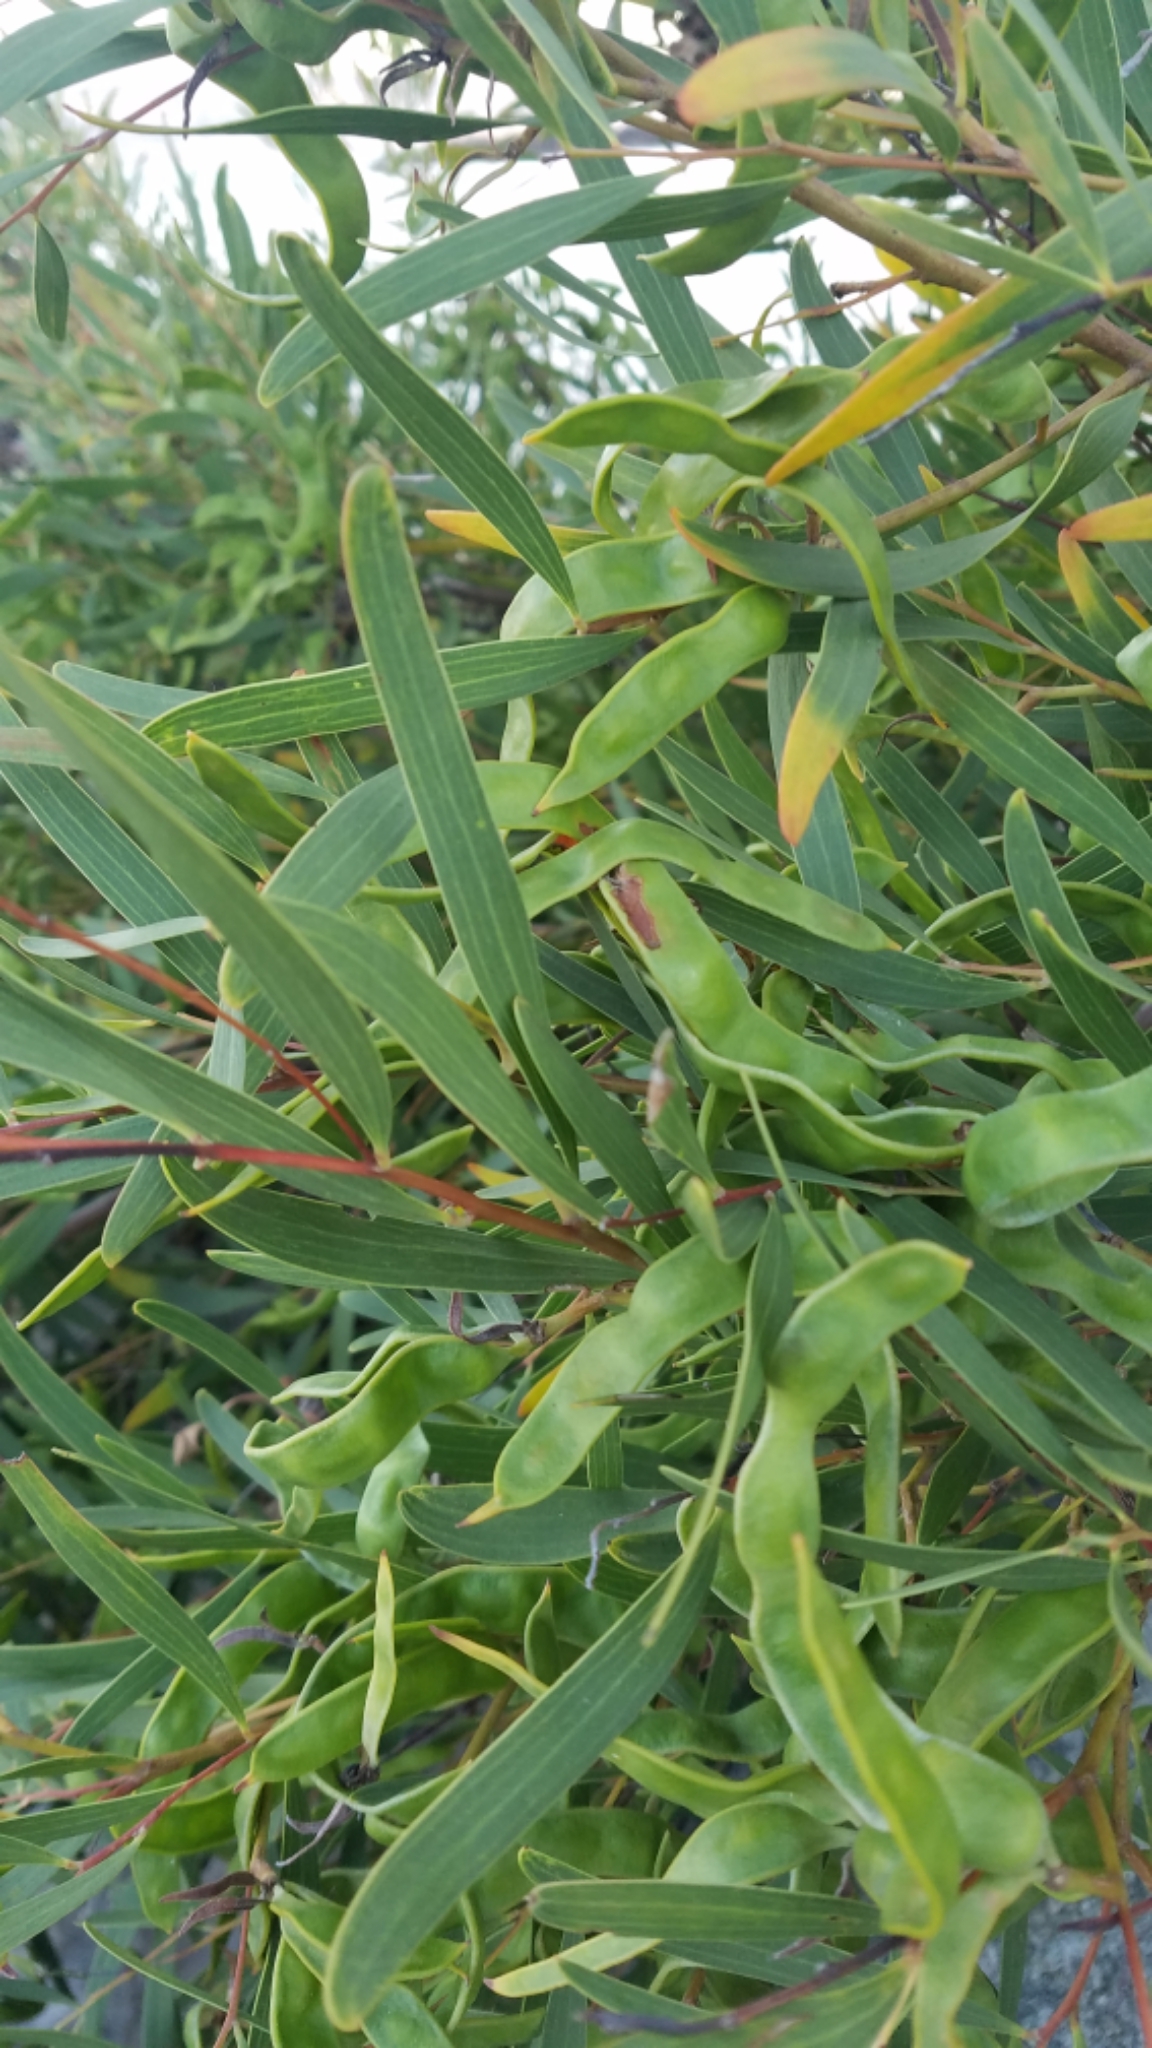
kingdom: Plantae
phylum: Tracheophyta
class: Magnoliopsida
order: Fabales
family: Fabaceae
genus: Acacia
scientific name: Acacia cyclops
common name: Coastal wattle
